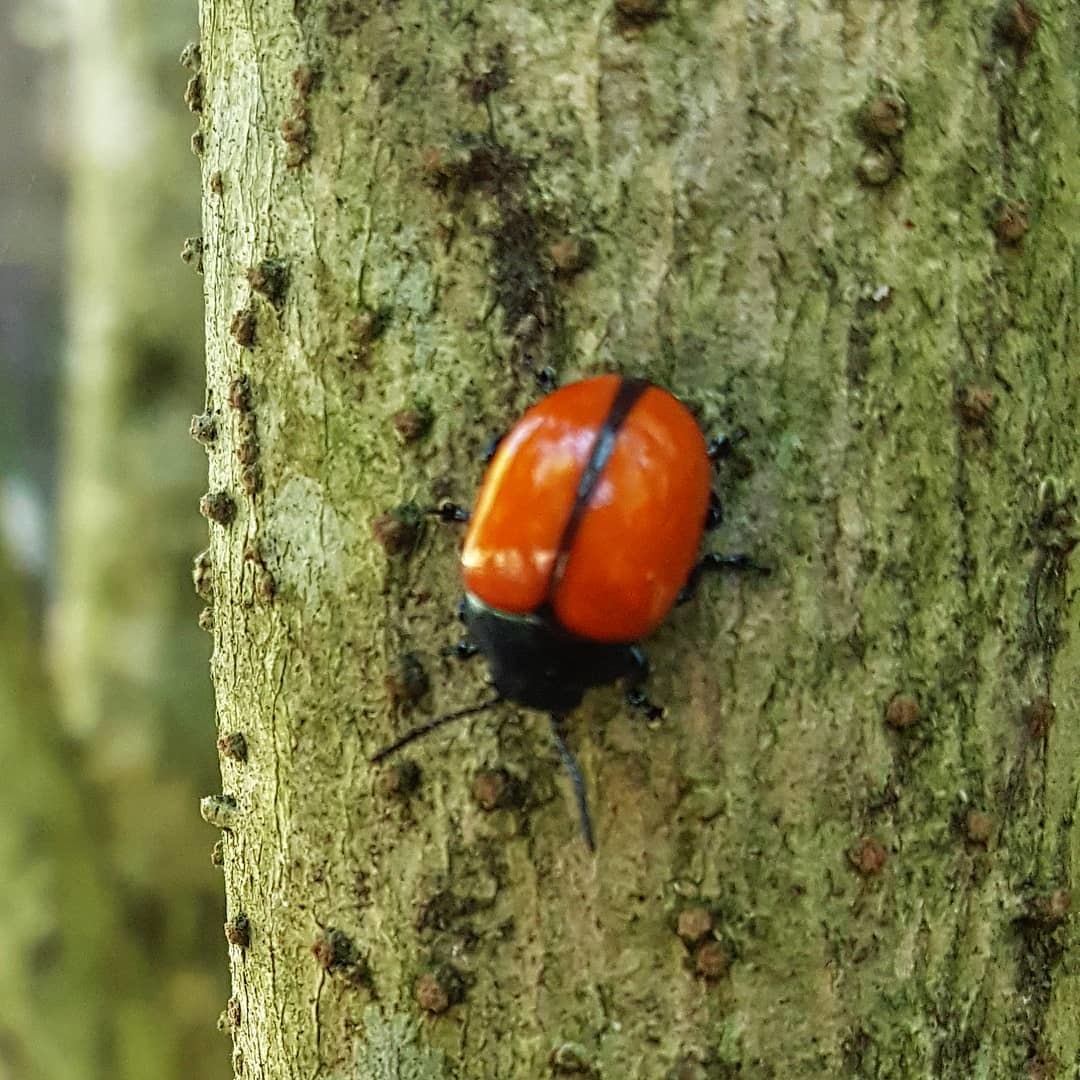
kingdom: Animalia
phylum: Arthropoda
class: Insecta
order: Coleoptera
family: Chrysomelidae
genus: Labidomera
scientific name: Labidomera
